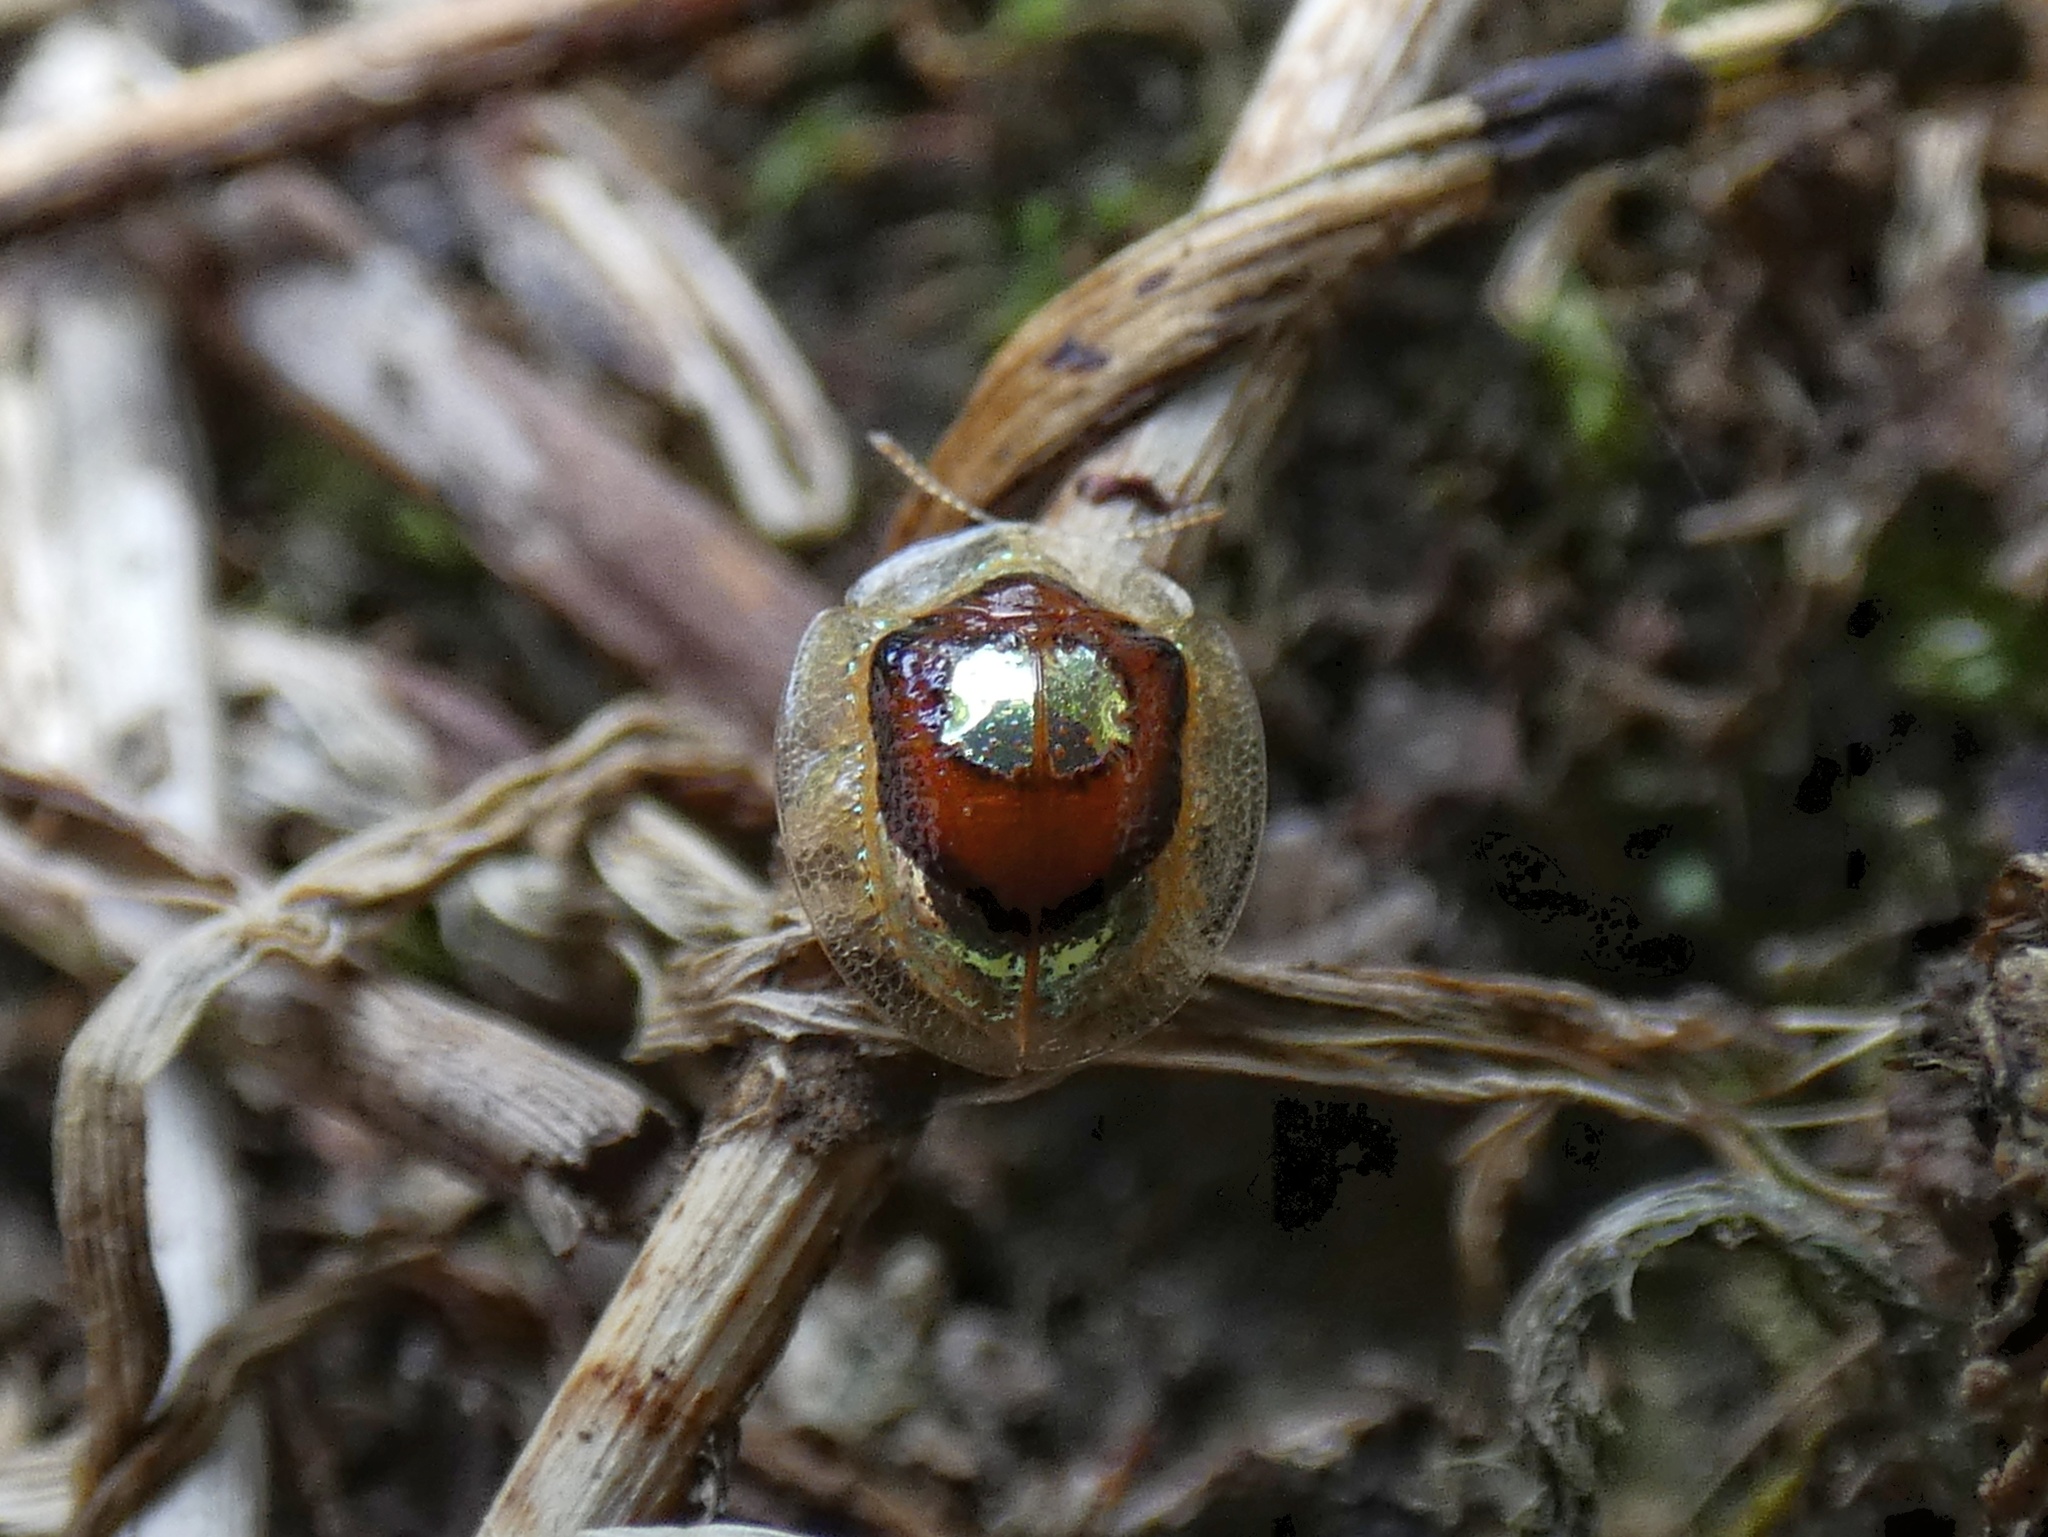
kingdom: Animalia
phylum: Arthropoda
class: Insecta
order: Coleoptera
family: Chrysomelidae
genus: Charidotella
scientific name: Charidotella puella
